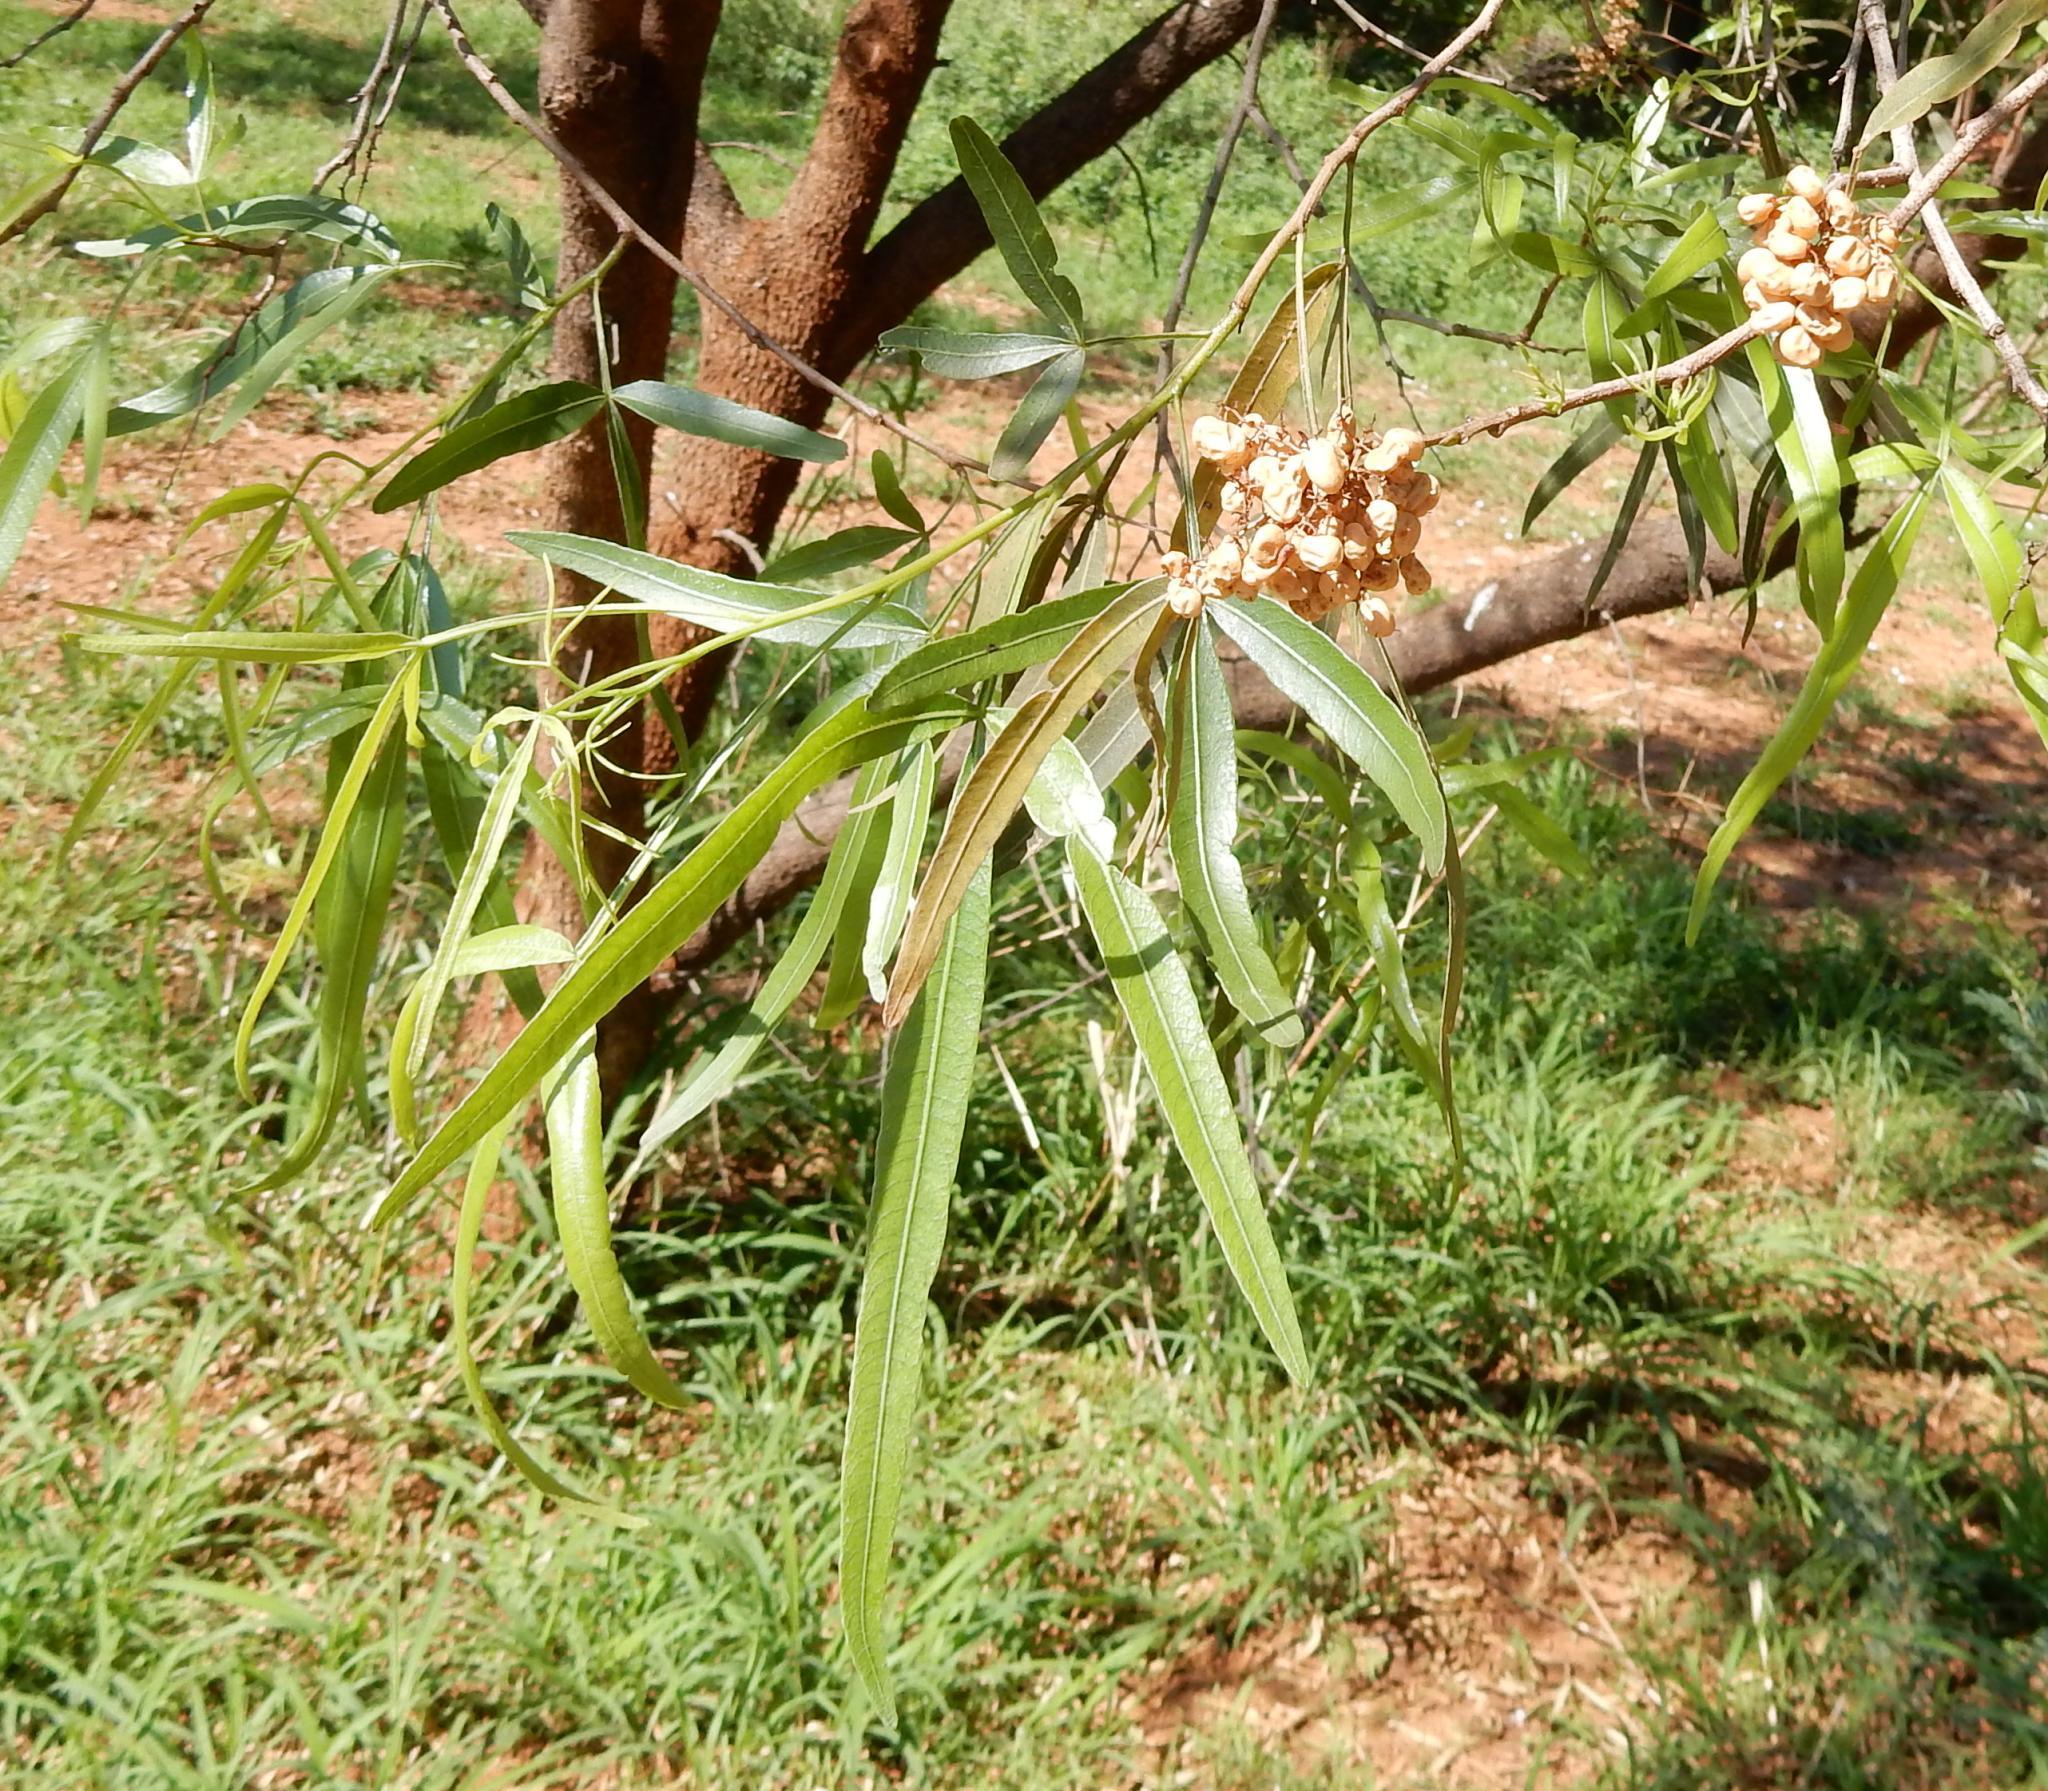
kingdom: Plantae
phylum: Tracheophyta
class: Magnoliopsida
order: Sapindales
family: Anacardiaceae
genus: Searsia
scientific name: Searsia lancea
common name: Cashew
